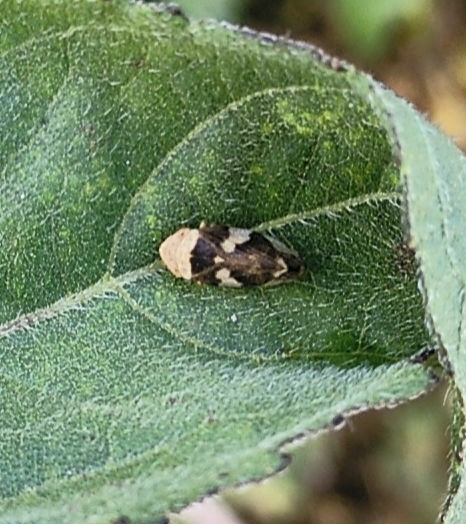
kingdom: Animalia
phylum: Arthropoda
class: Insecta
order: Hemiptera
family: Aphrophoridae
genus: Philaenus
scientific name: Philaenus spumarius
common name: Meadow spittlebug
